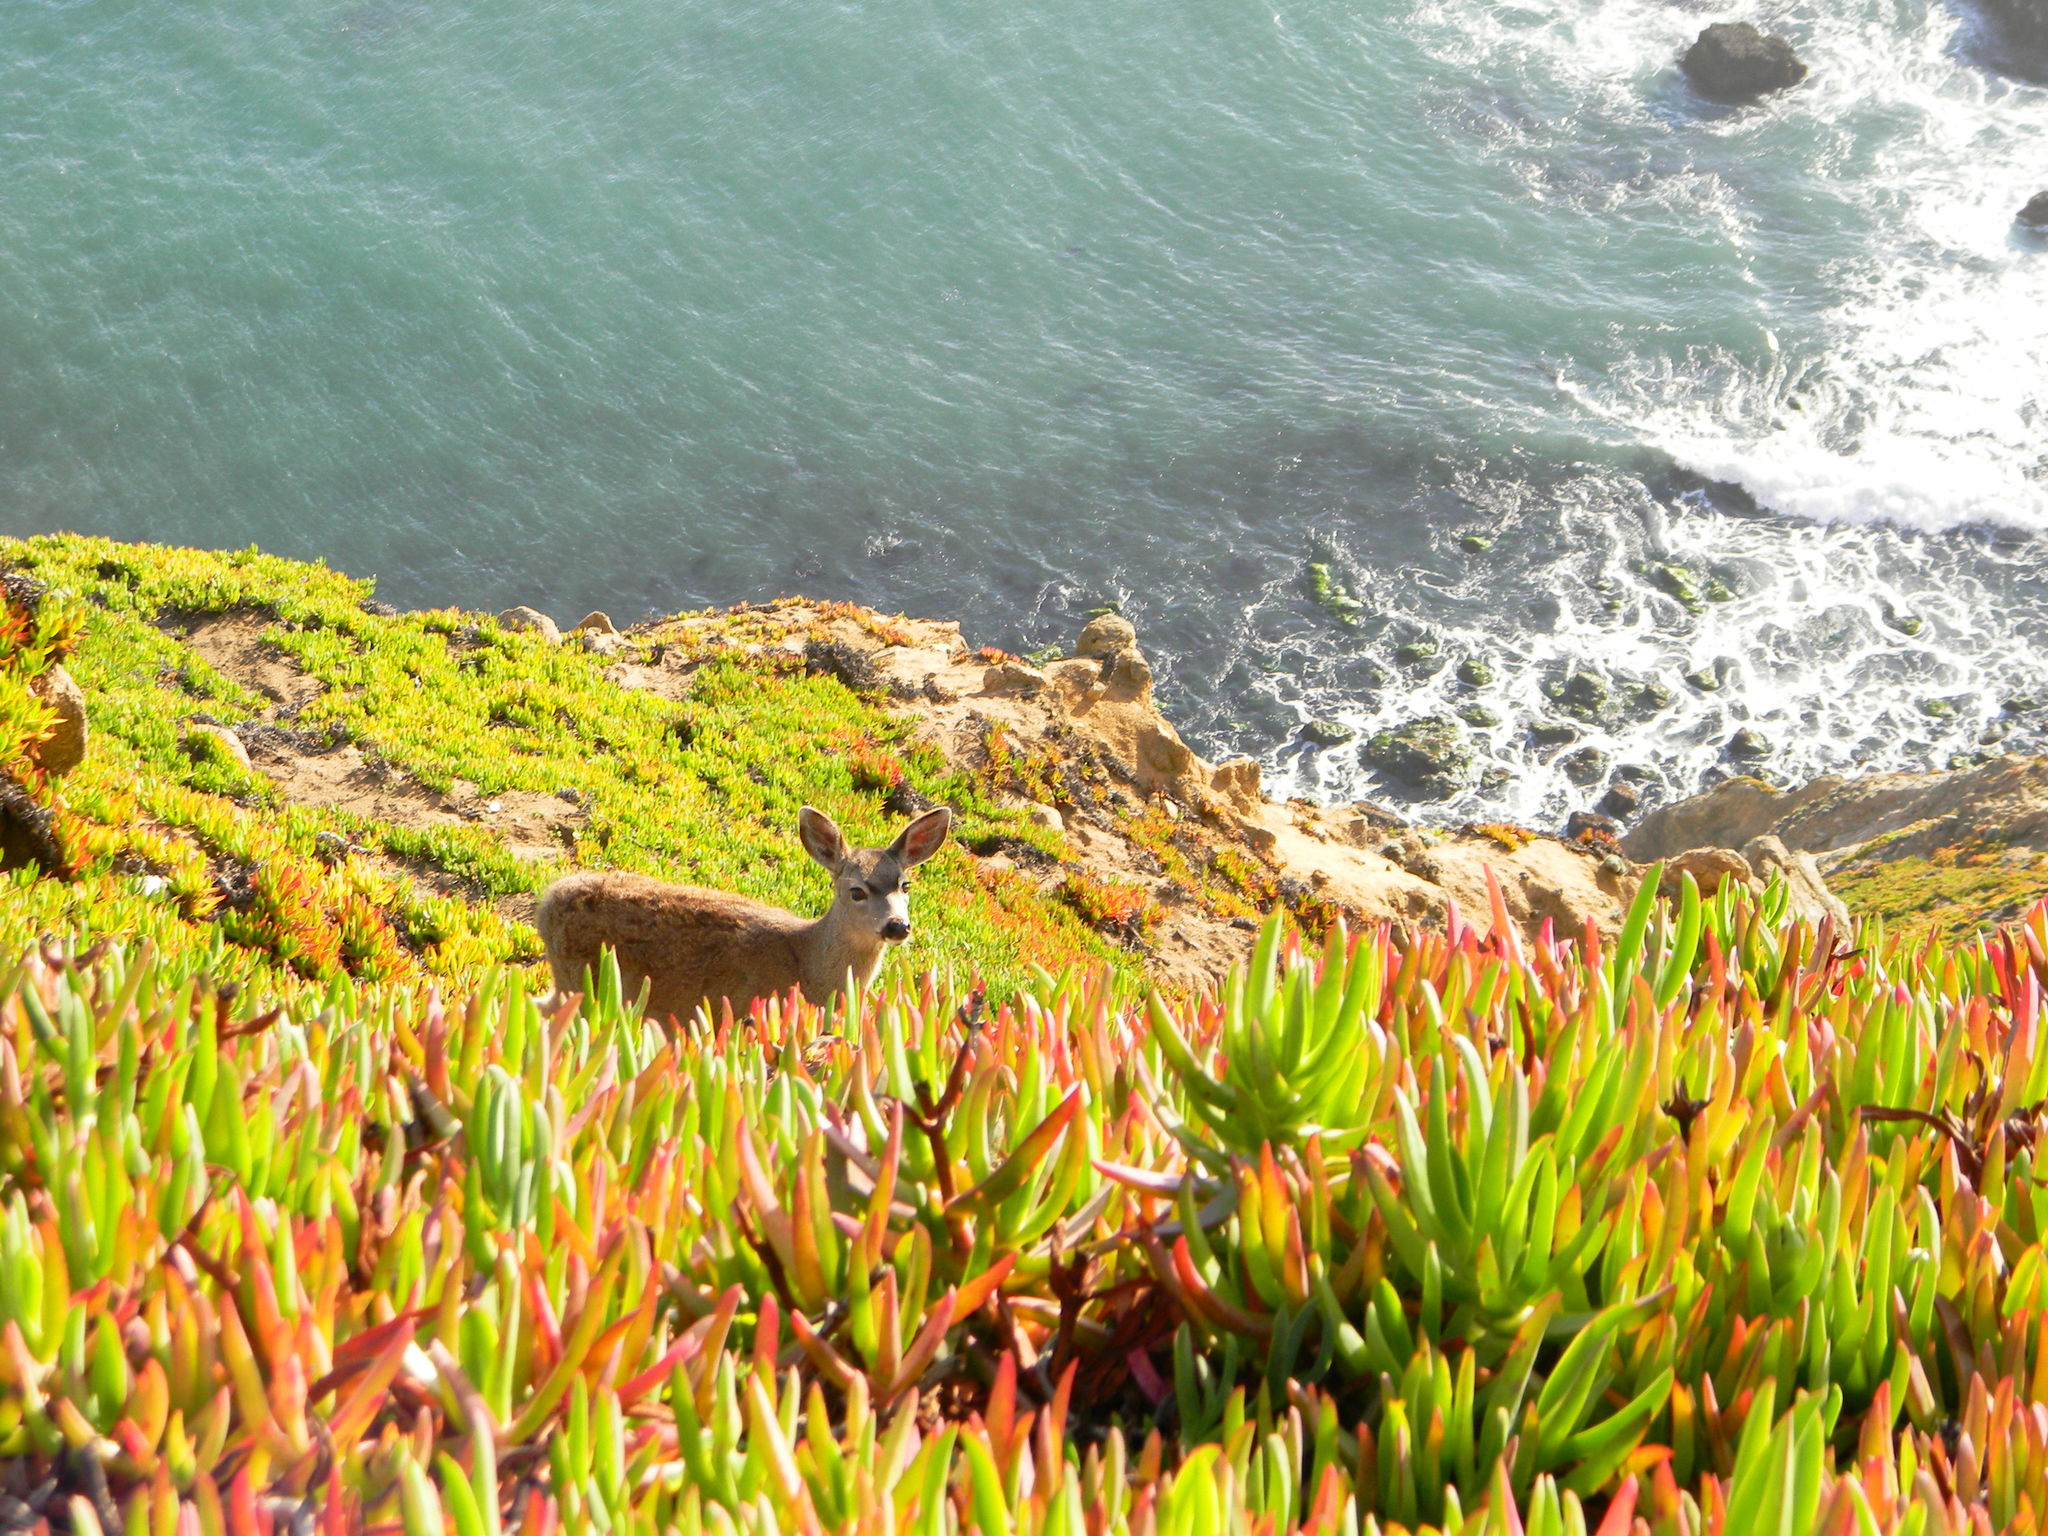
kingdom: Animalia
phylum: Chordata
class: Mammalia
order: Artiodactyla
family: Cervidae
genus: Odocoileus
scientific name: Odocoileus hemionus
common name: Mule deer
